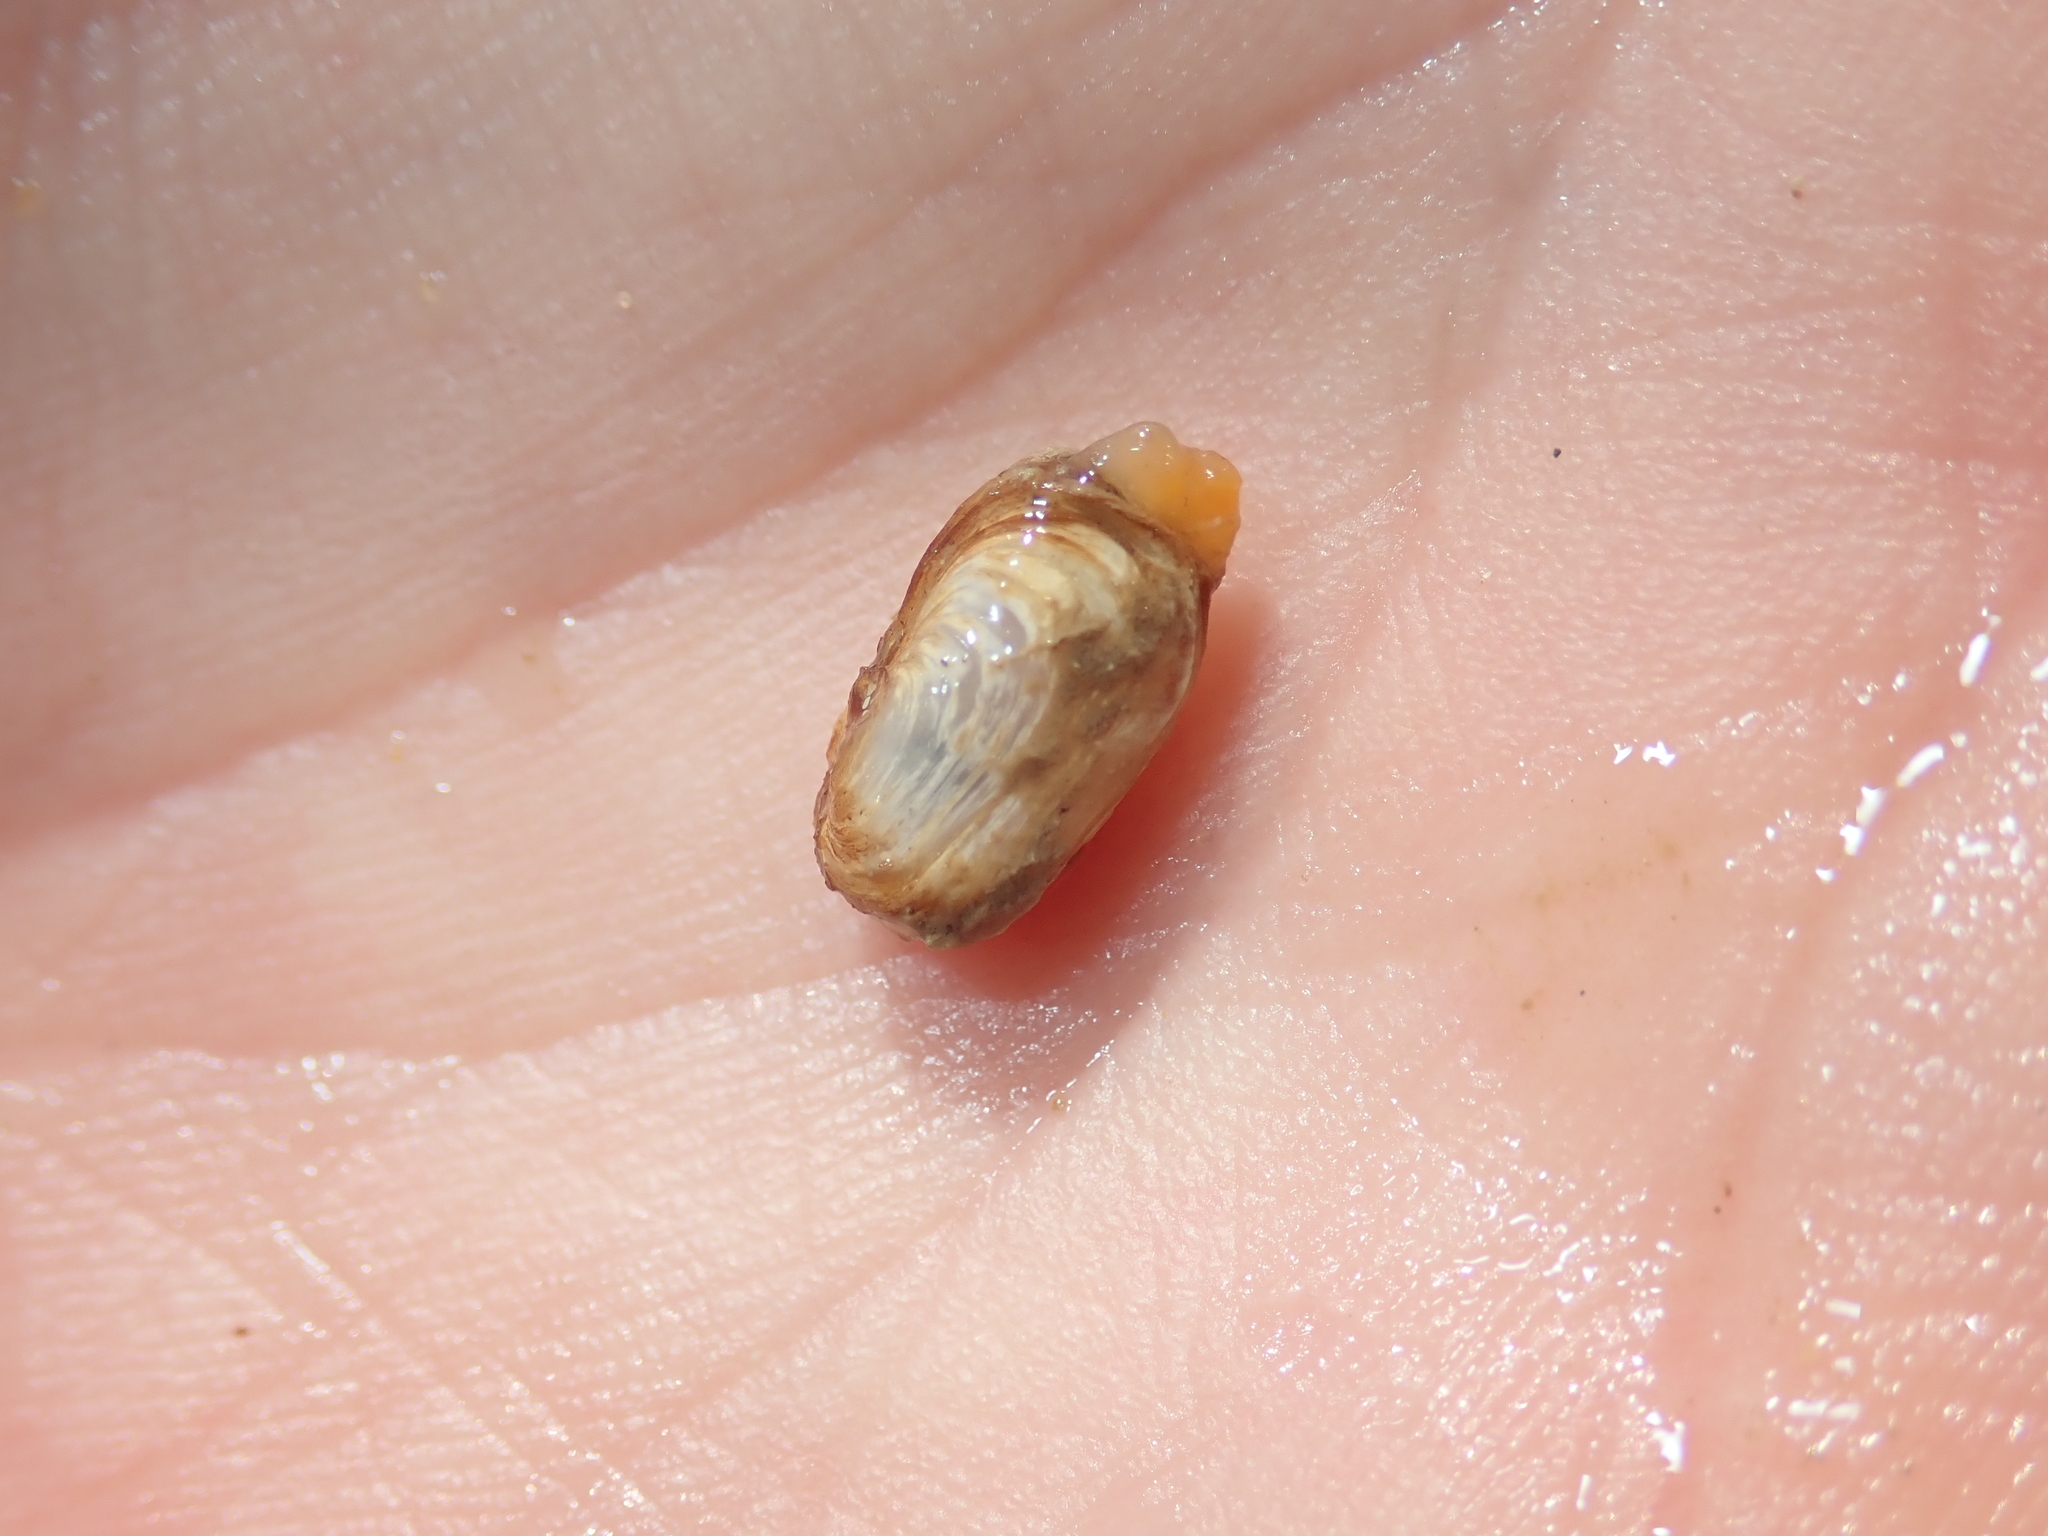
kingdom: Animalia
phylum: Mollusca
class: Bivalvia
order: Adapedonta
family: Hiatellidae
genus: Hiatella
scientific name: Hiatella rugosa
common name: Common rock borer
